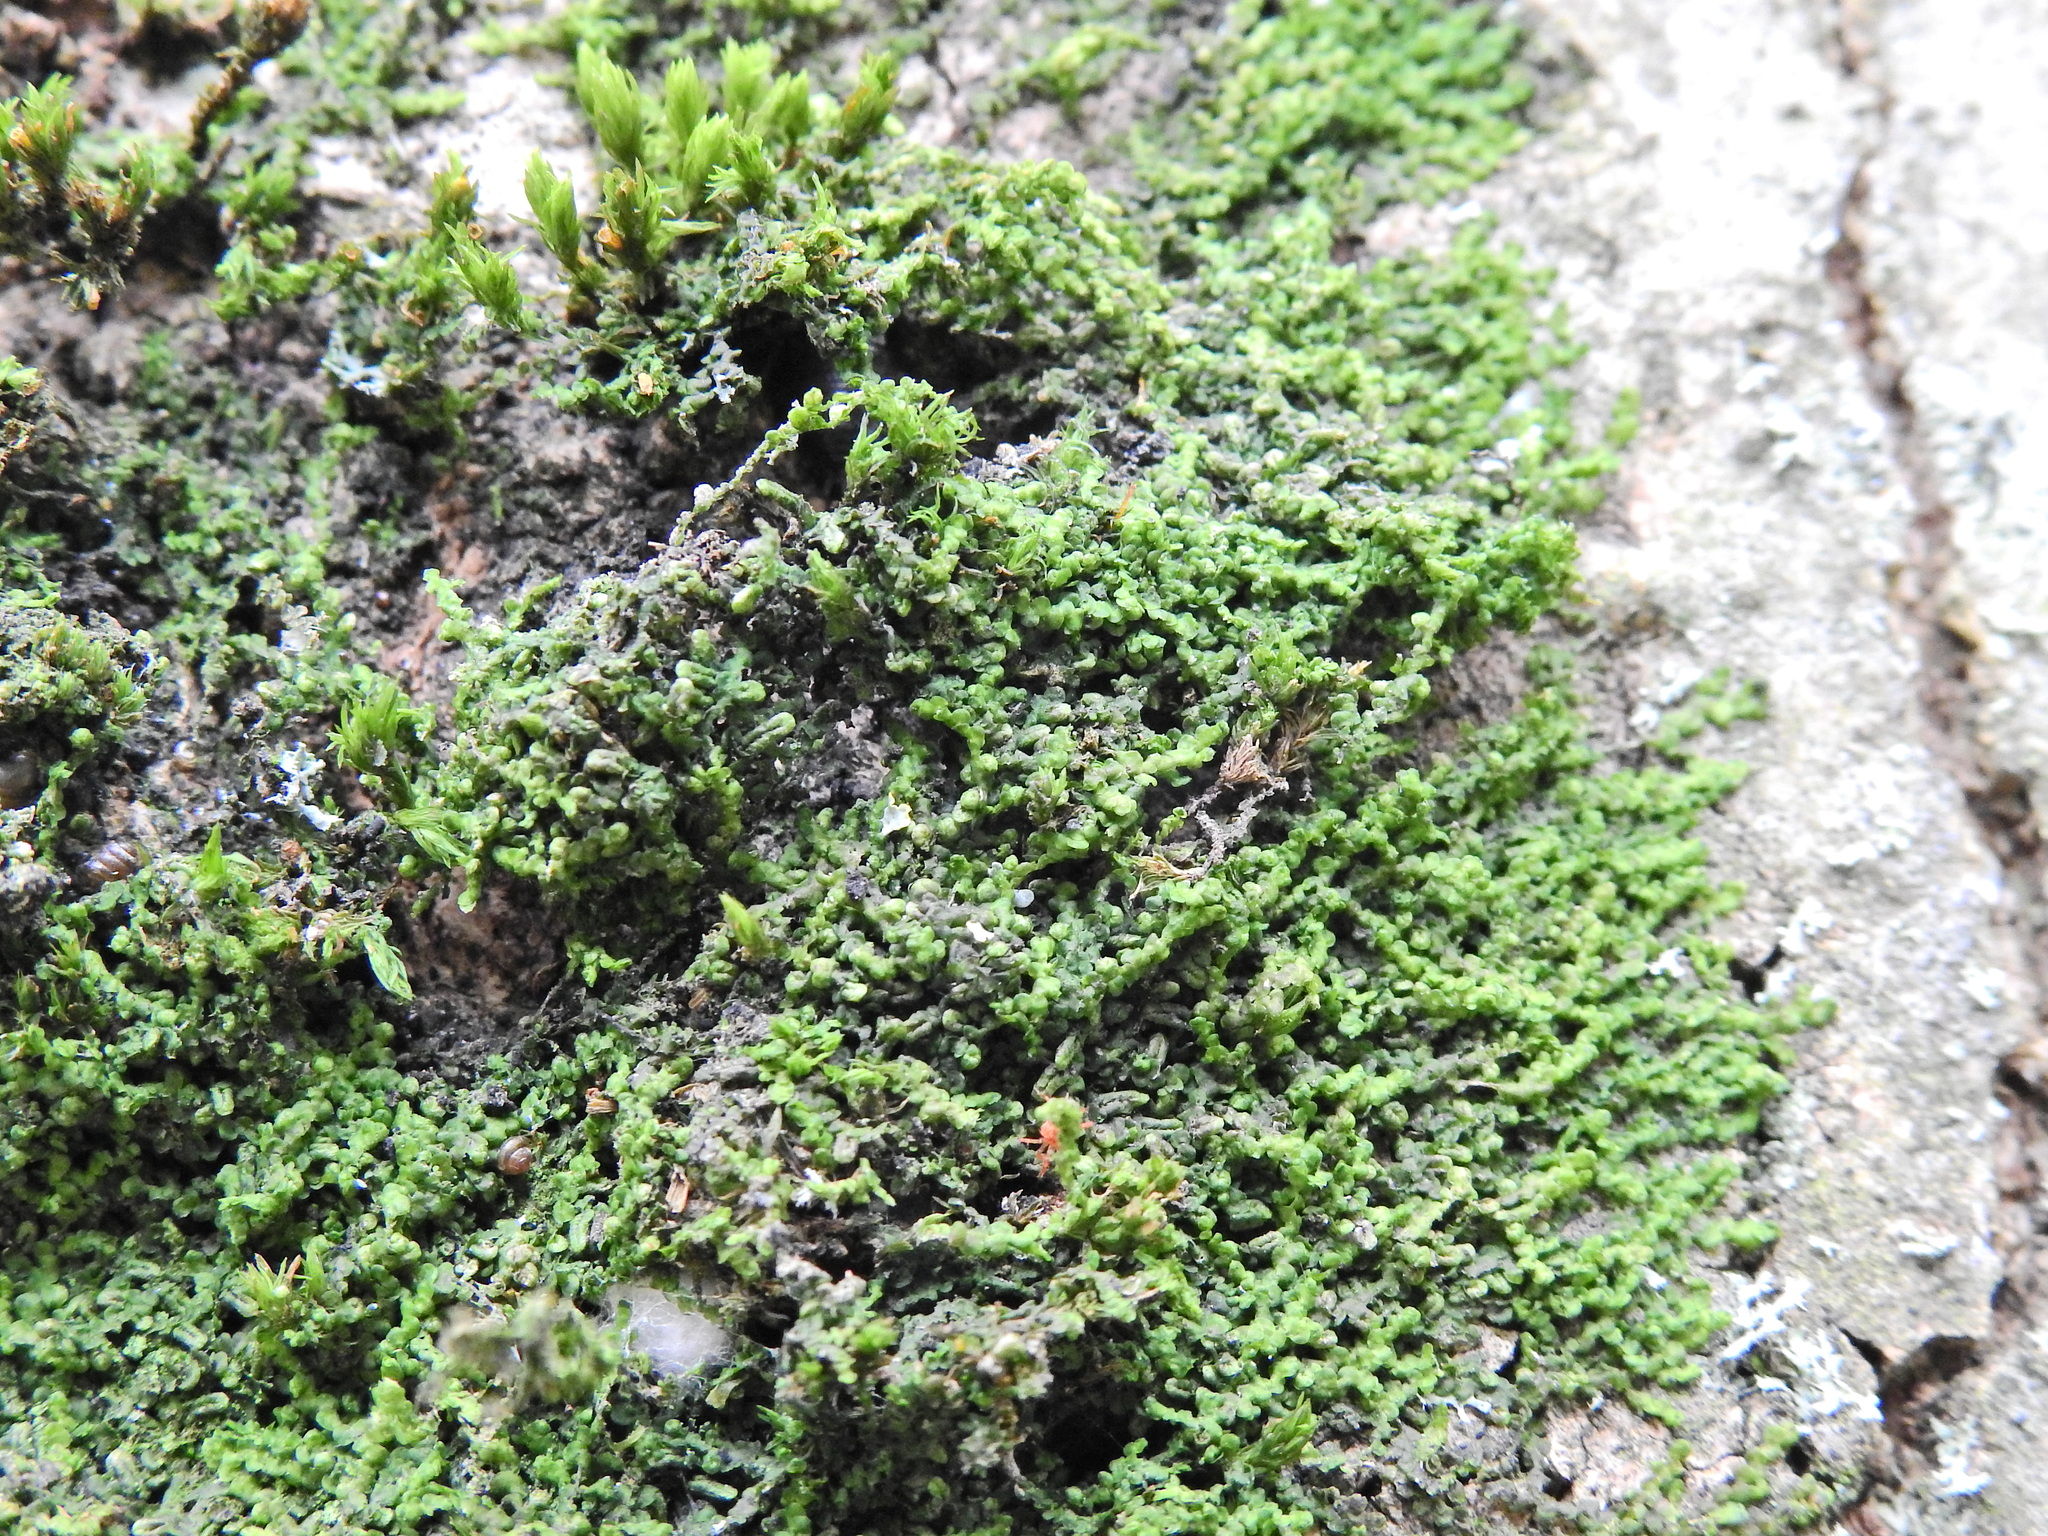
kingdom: Plantae
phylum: Marchantiophyta
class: Jungermanniopsida
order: Porellales
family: Frullaniaceae
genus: Frullania
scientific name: Frullania dilatata
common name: Dilated scalewort
